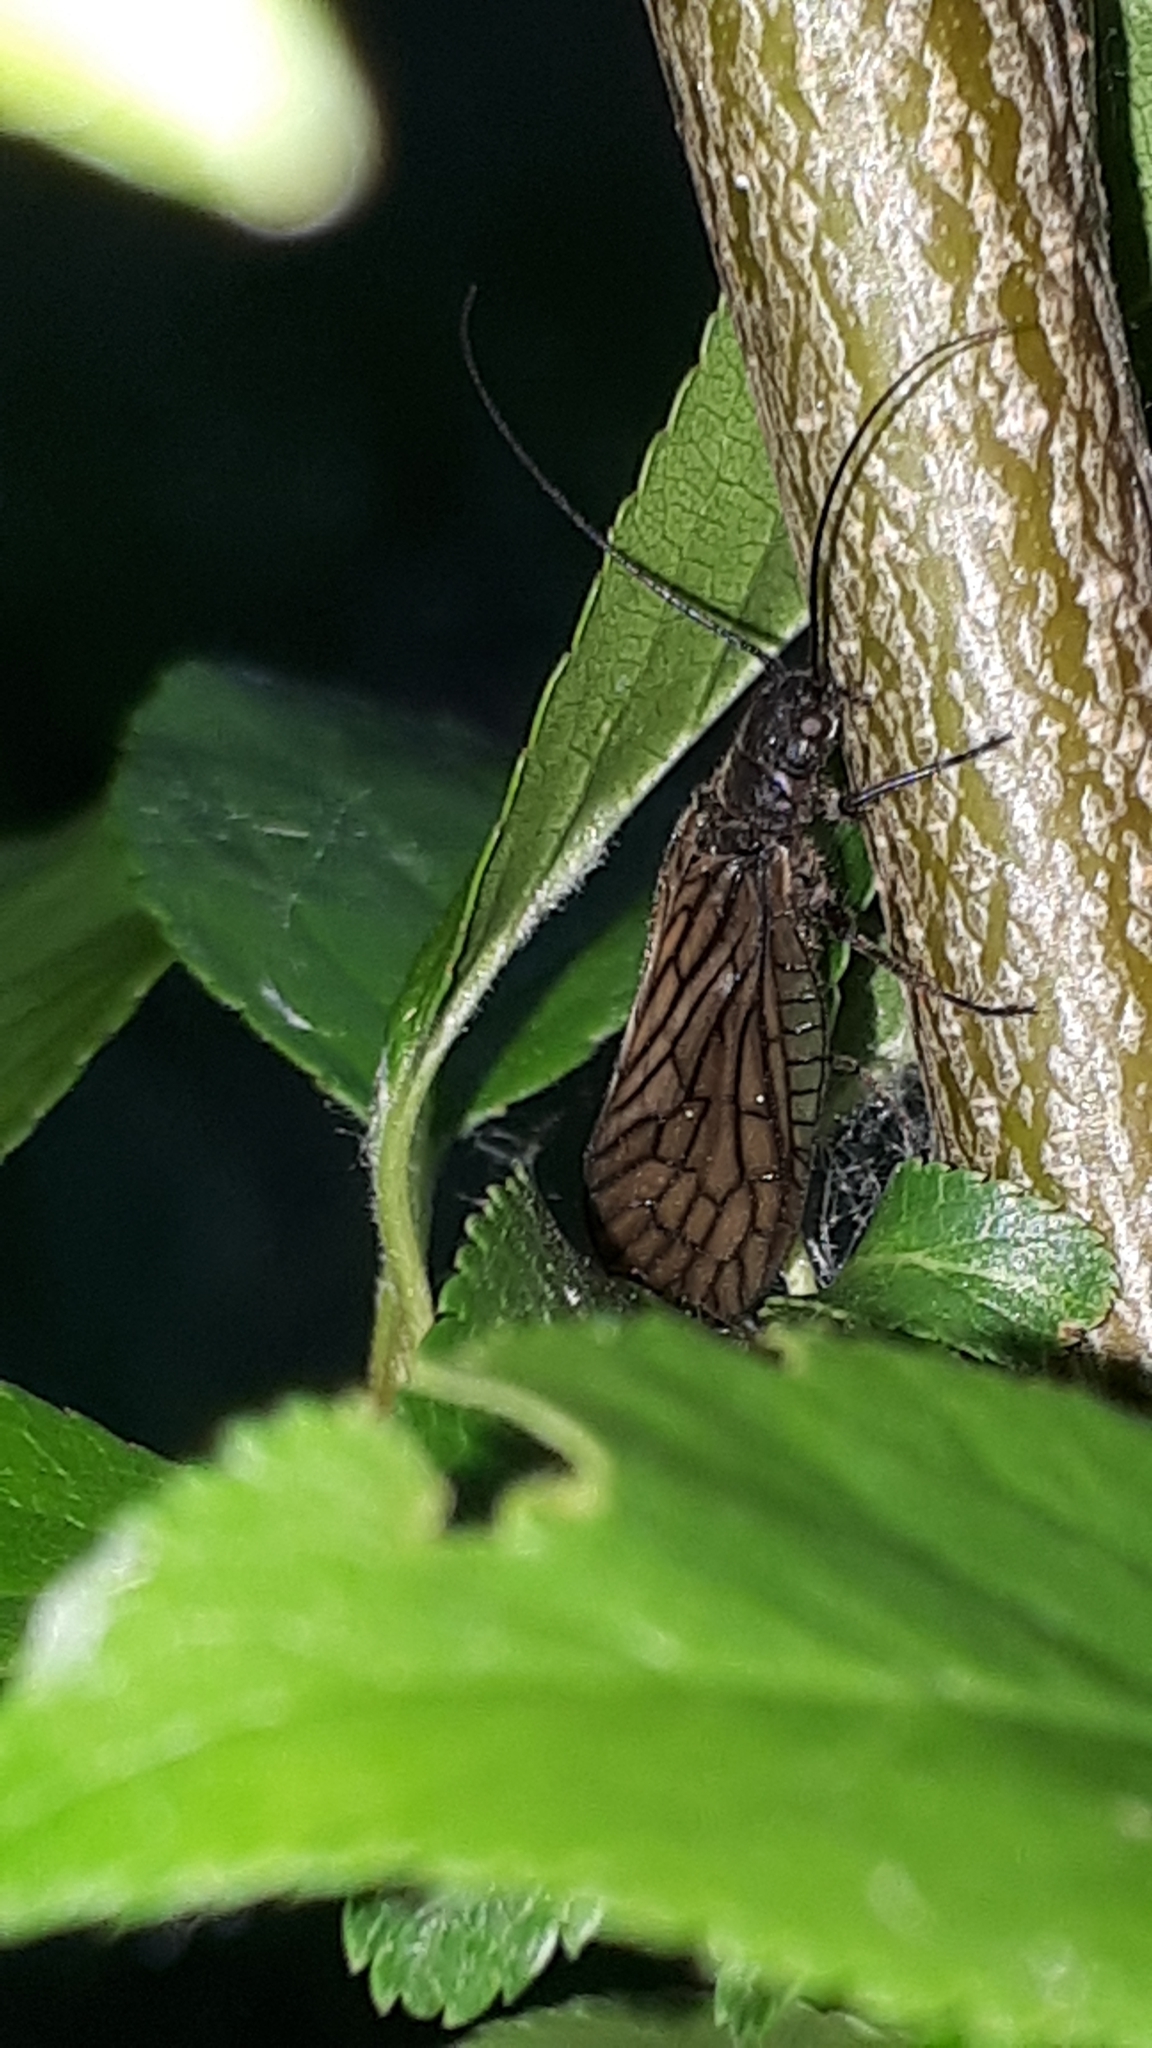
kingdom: Animalia
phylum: Arthropoda
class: Insecta
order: Megaloptera
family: Sialidae
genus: Sialis
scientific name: Sialis
